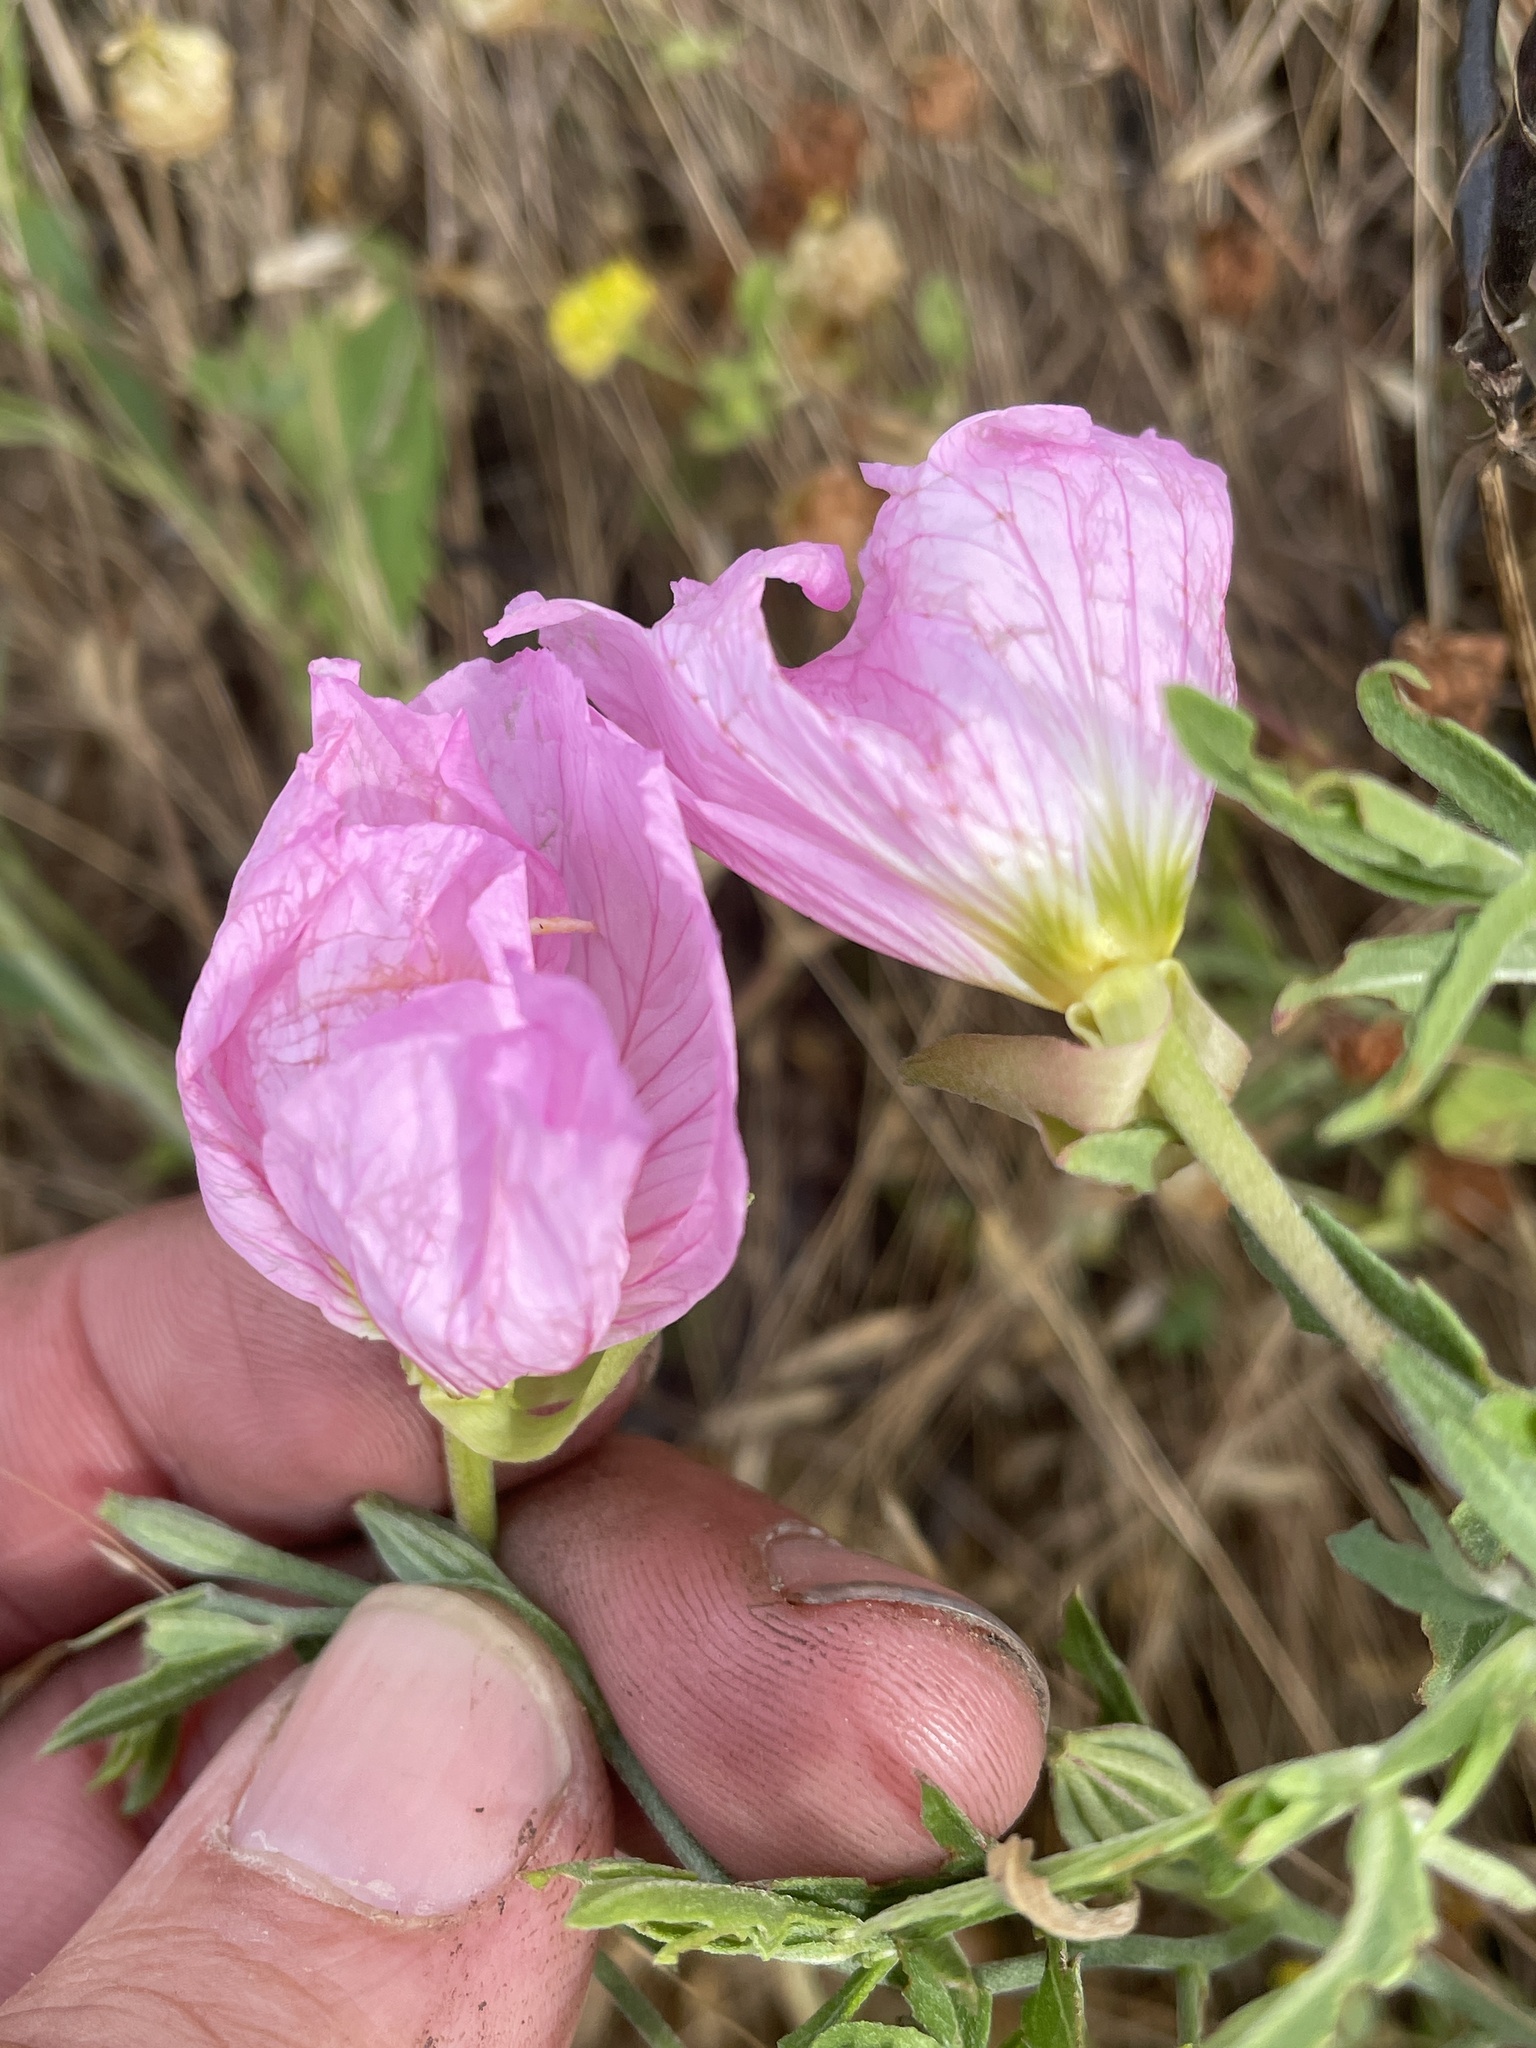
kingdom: Plantae
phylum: Tracheophyta
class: Magnoliopsida
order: Myrtales
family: Onagraceae
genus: Oenothera
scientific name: Oenothera speciosa
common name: White evening-primrose
